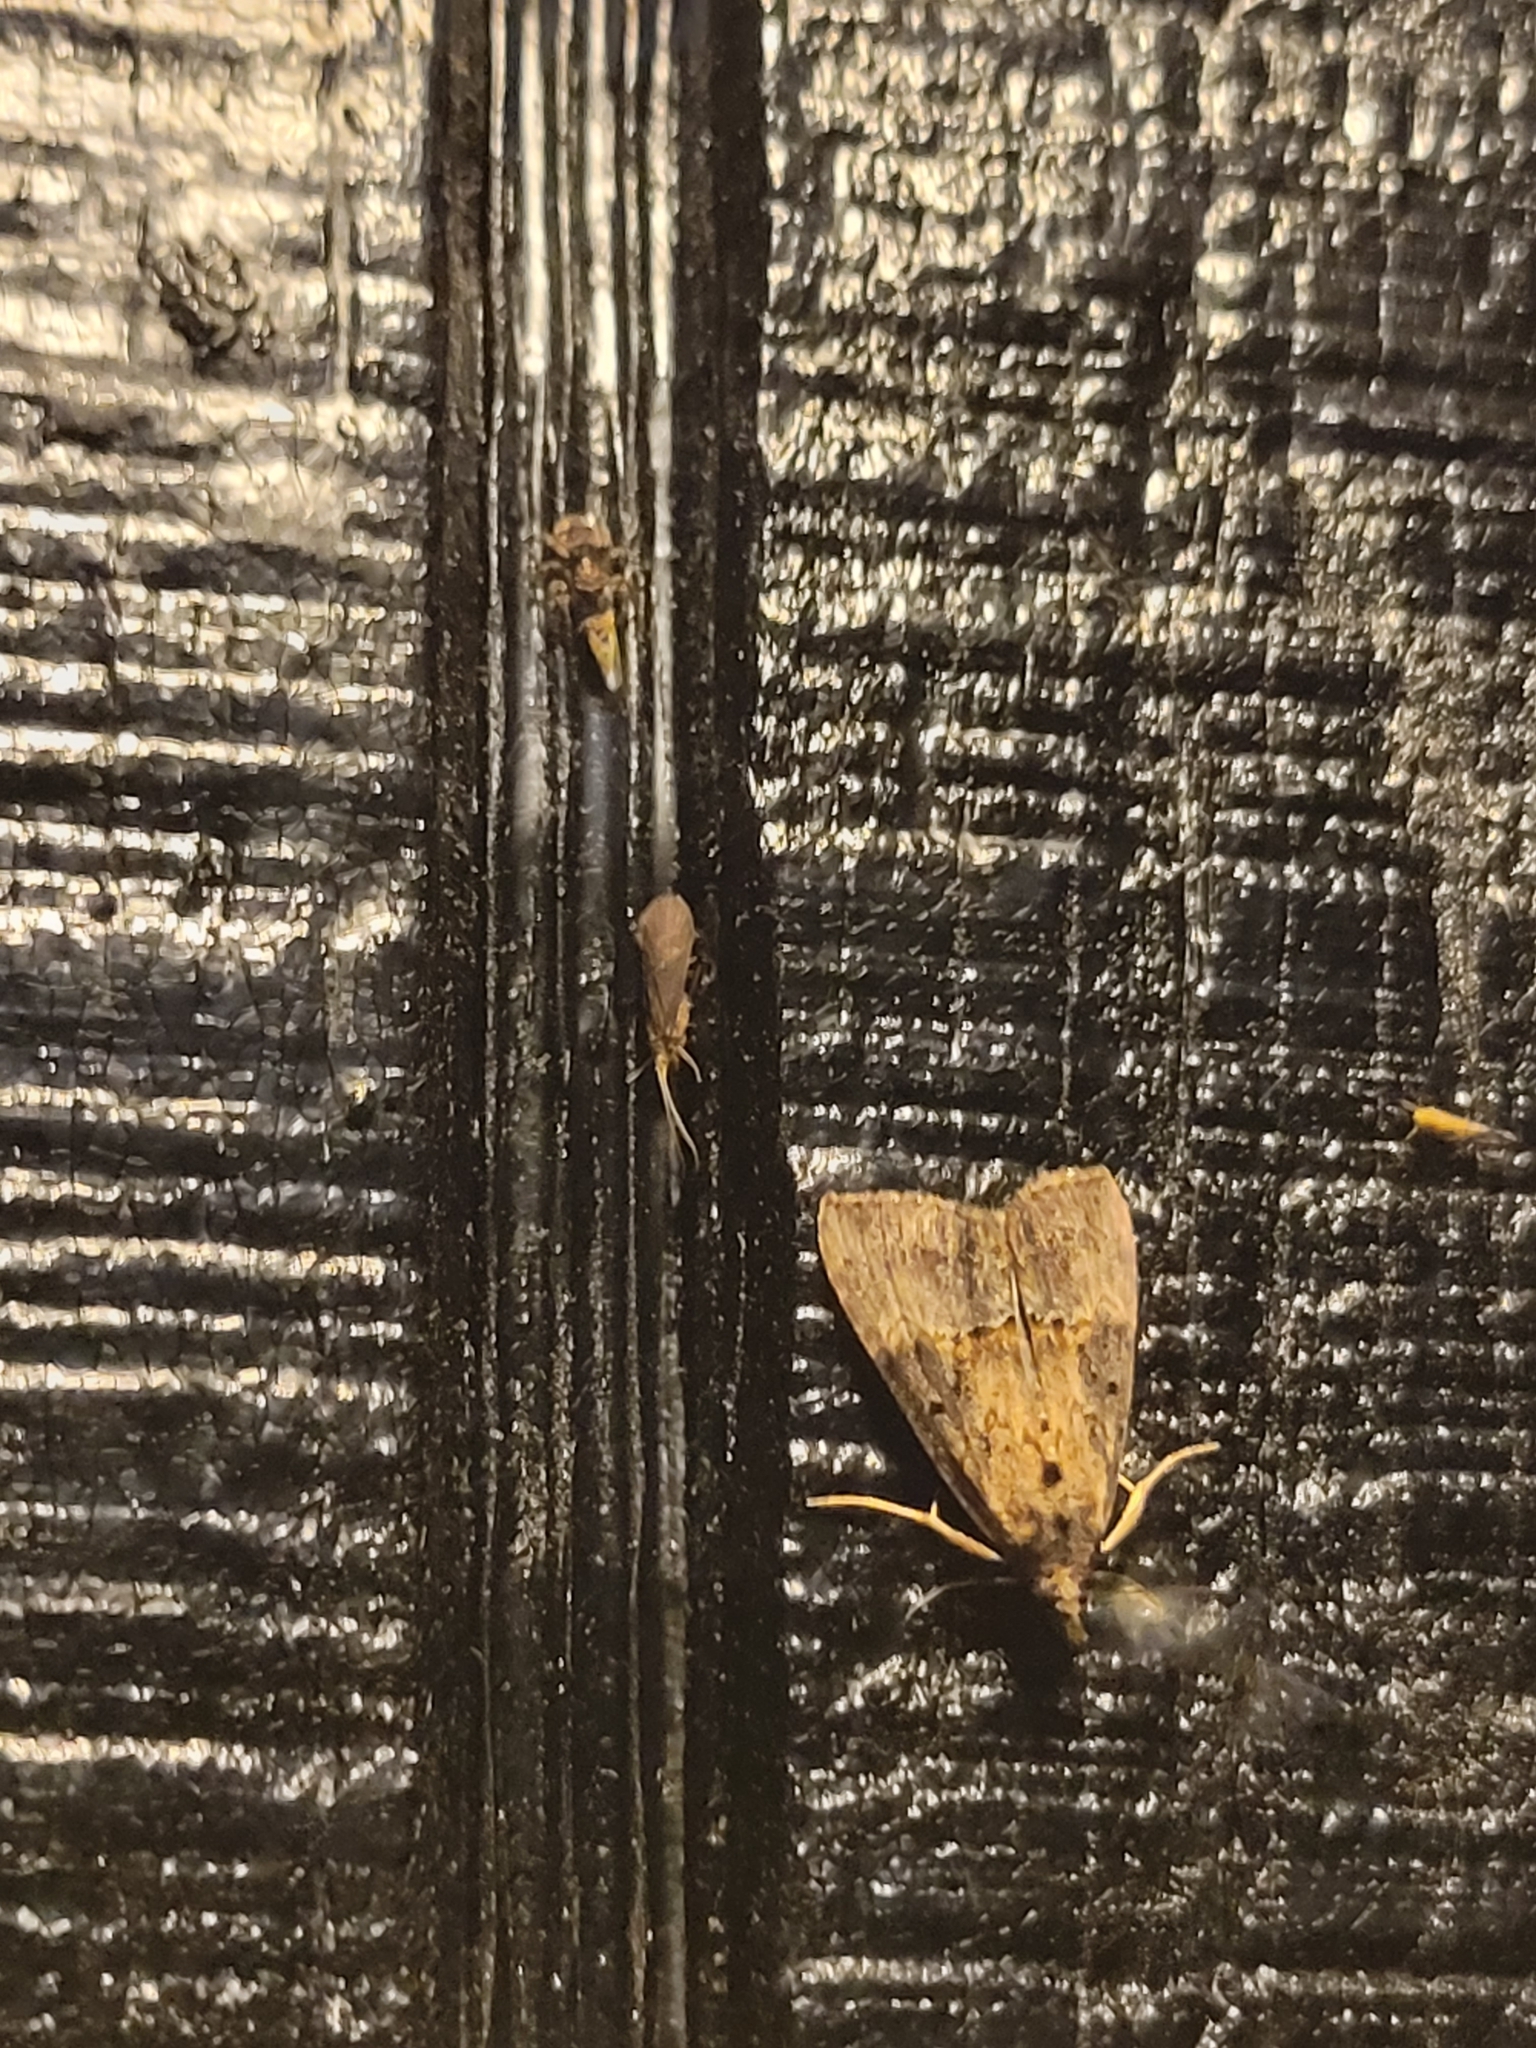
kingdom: Animalia
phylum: Arthropoda
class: Insecta
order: Lepidoptera
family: Erebidae
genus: Hypena
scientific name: Hypena scabra
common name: Green cloverworm
